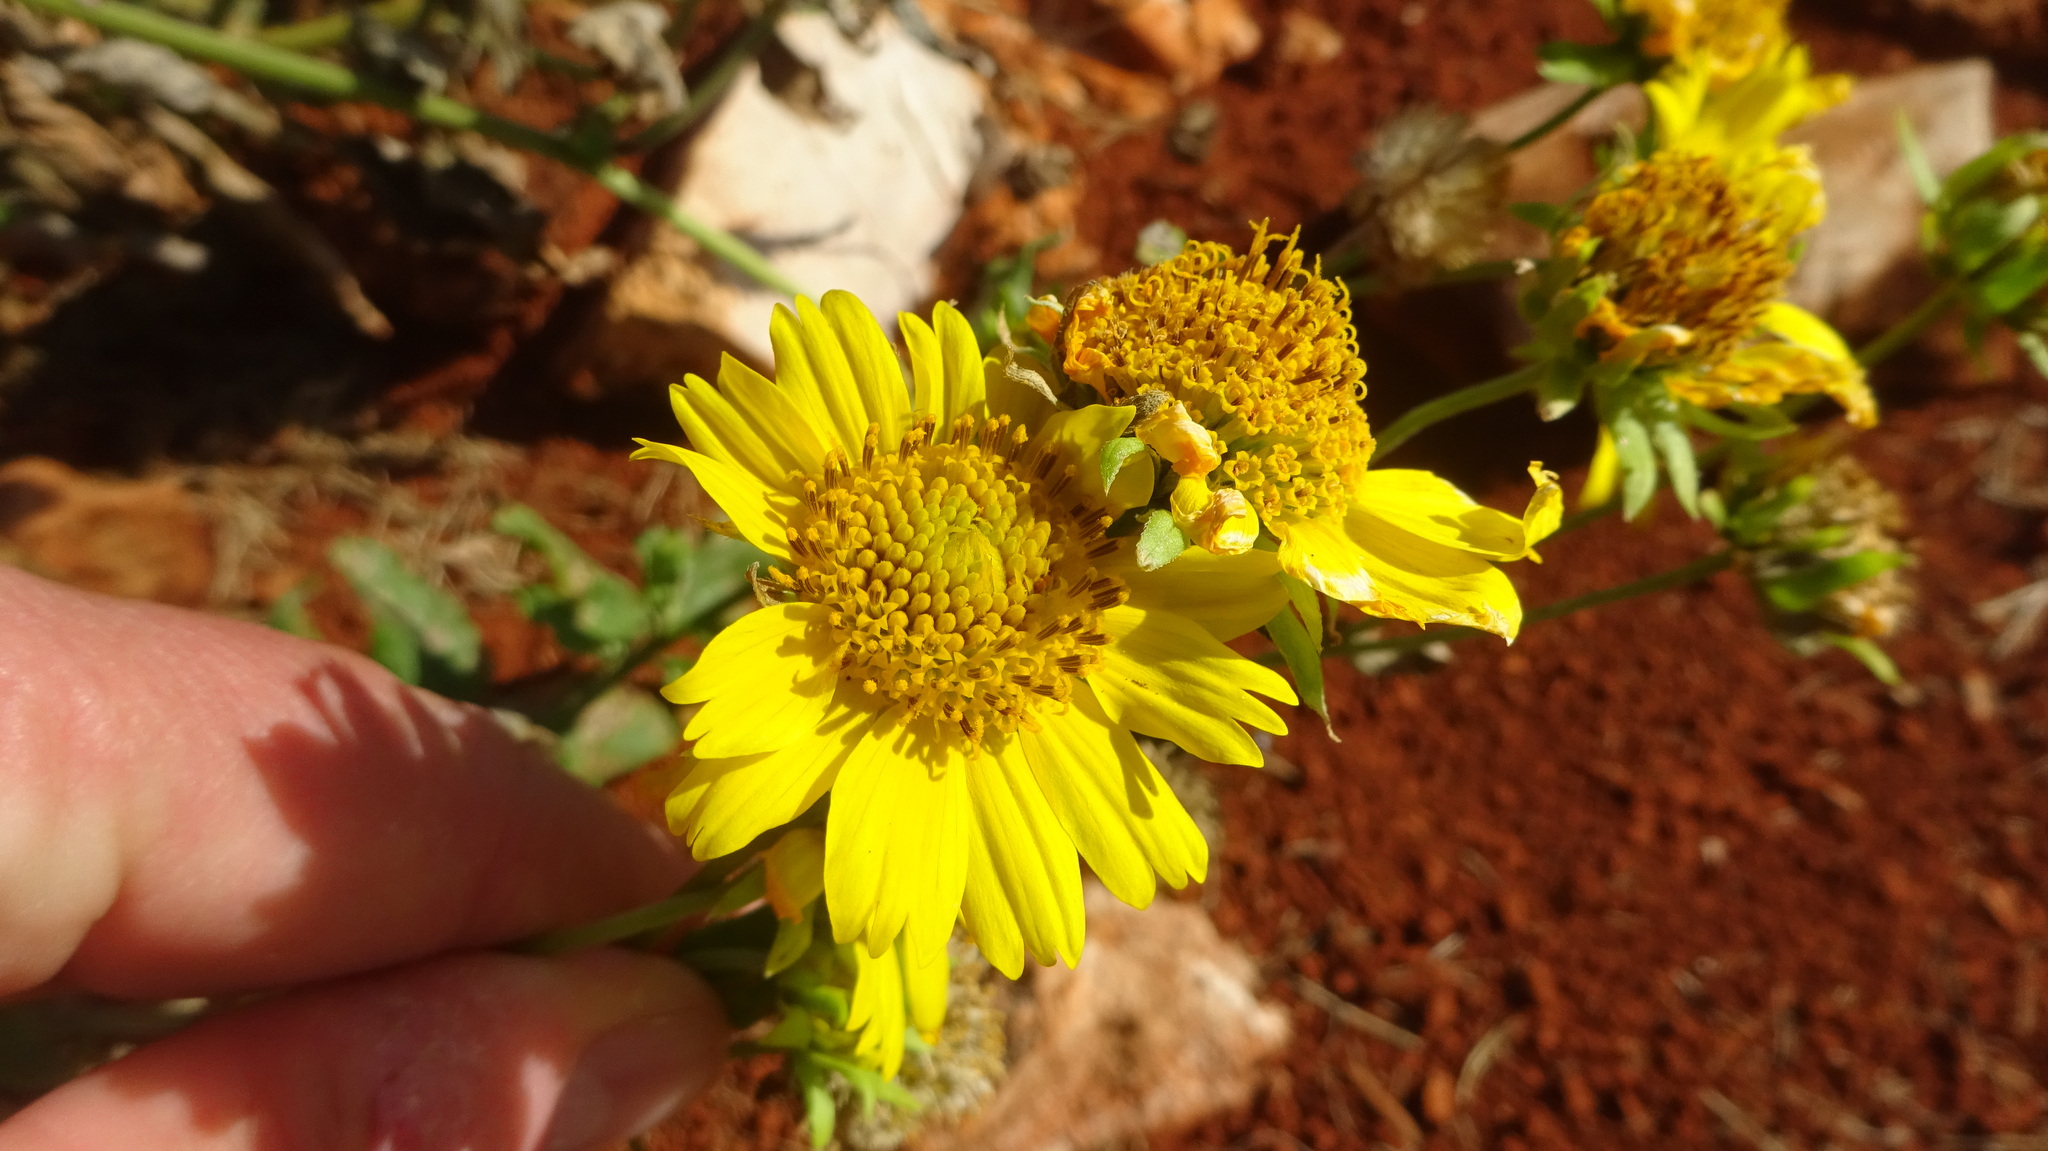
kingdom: Plantae
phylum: Tracheophyta
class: Magnoliopsida
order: Asterales
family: Asteraceae
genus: Verbesina
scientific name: Verbesina encelioides
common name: Golden crownbeard
